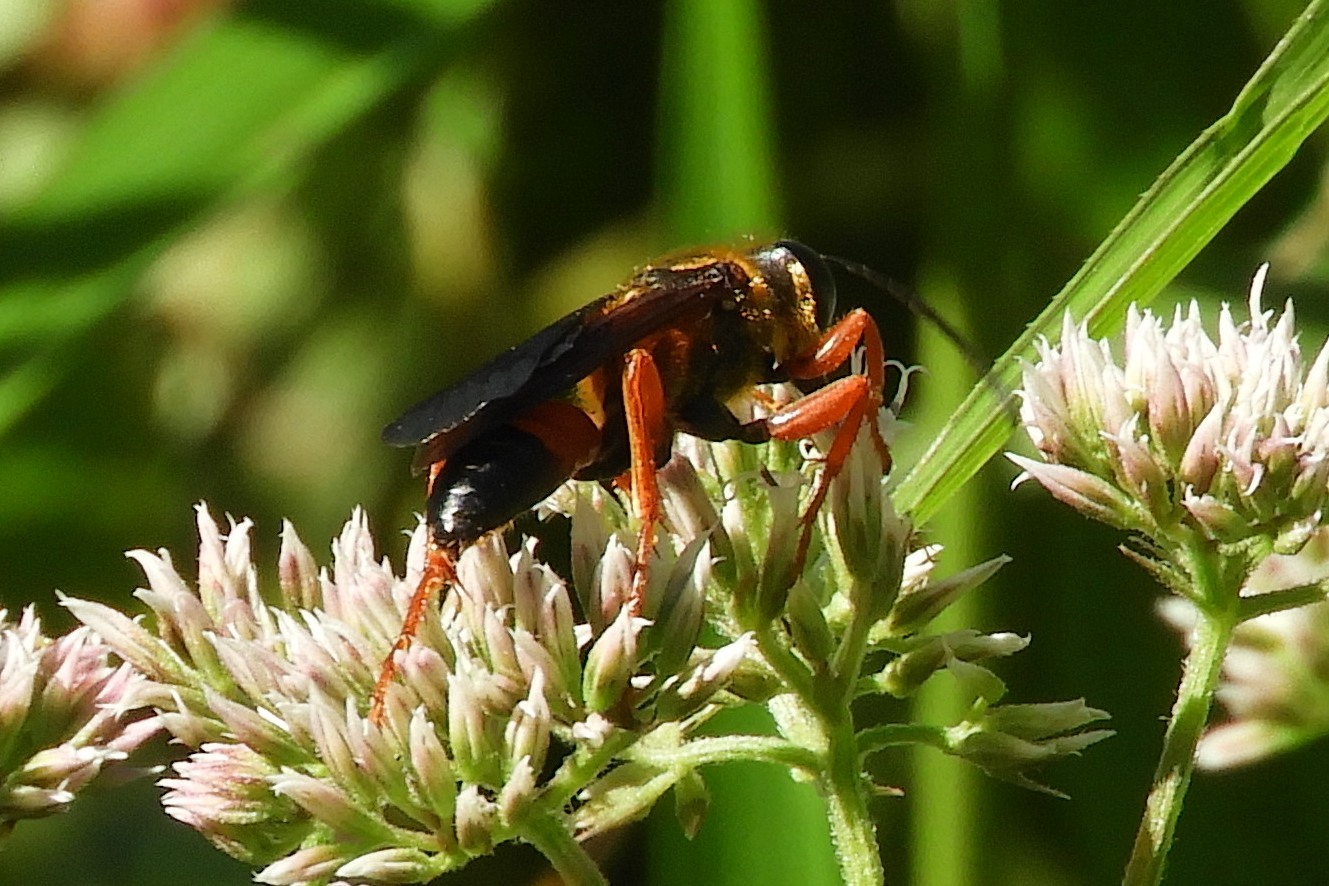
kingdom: Animalia
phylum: Arthropoda
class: Insecta
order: Hymenoptera
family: Sphecidae
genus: Sphex
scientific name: Sphex ichneumoneus
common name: Great golden digger wasp
